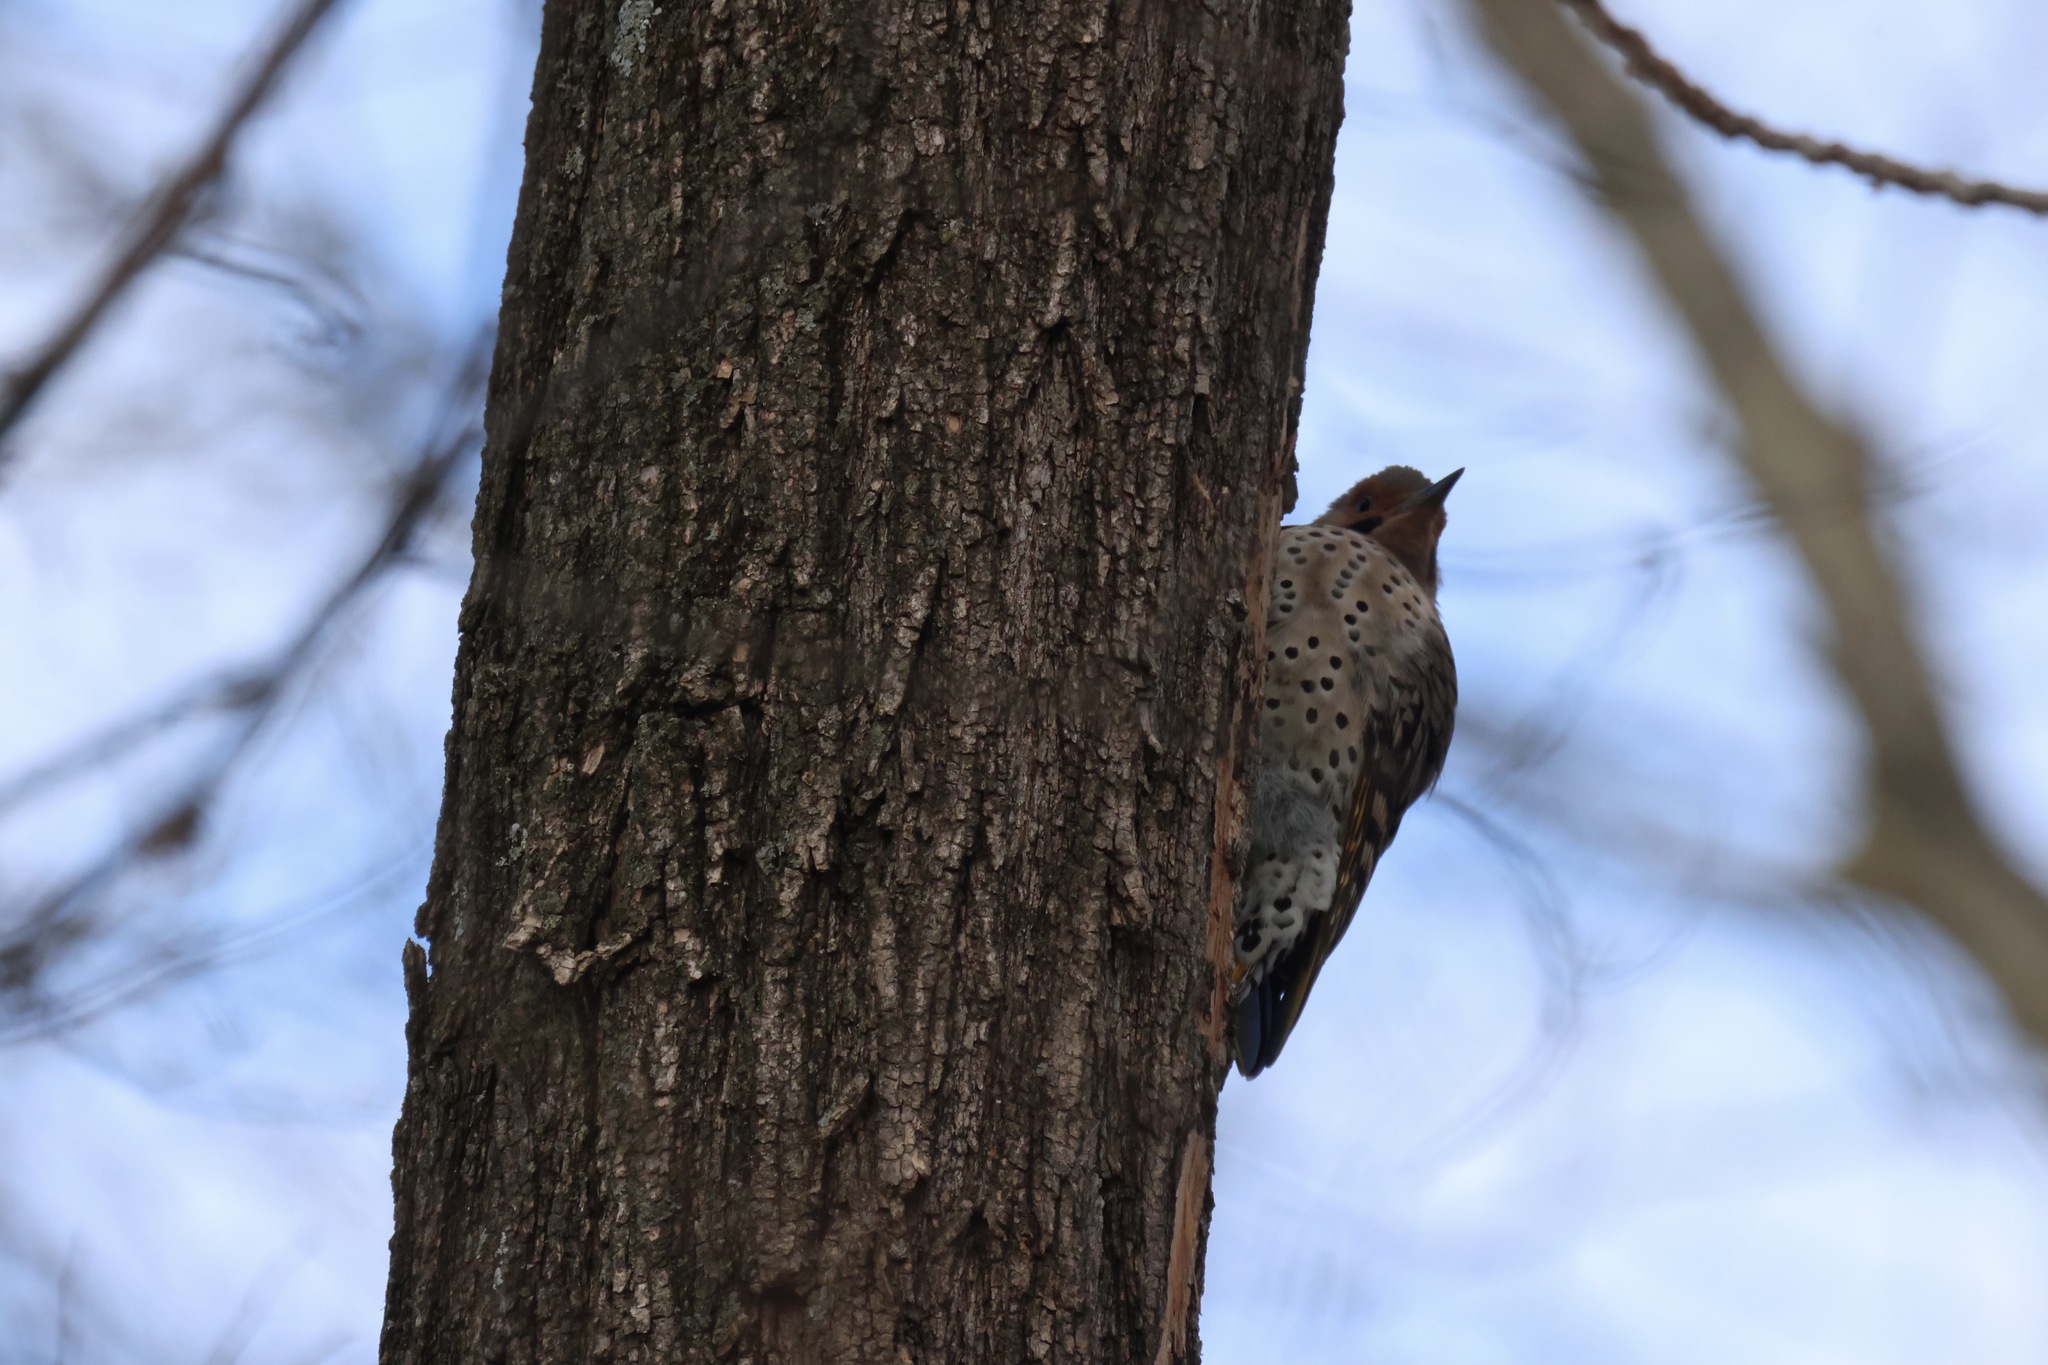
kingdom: Animalia
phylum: Chordata
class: Aves
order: Piciformes
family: Picidae
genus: Colaptes
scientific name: Colaptes auratus
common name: Northern flicker
